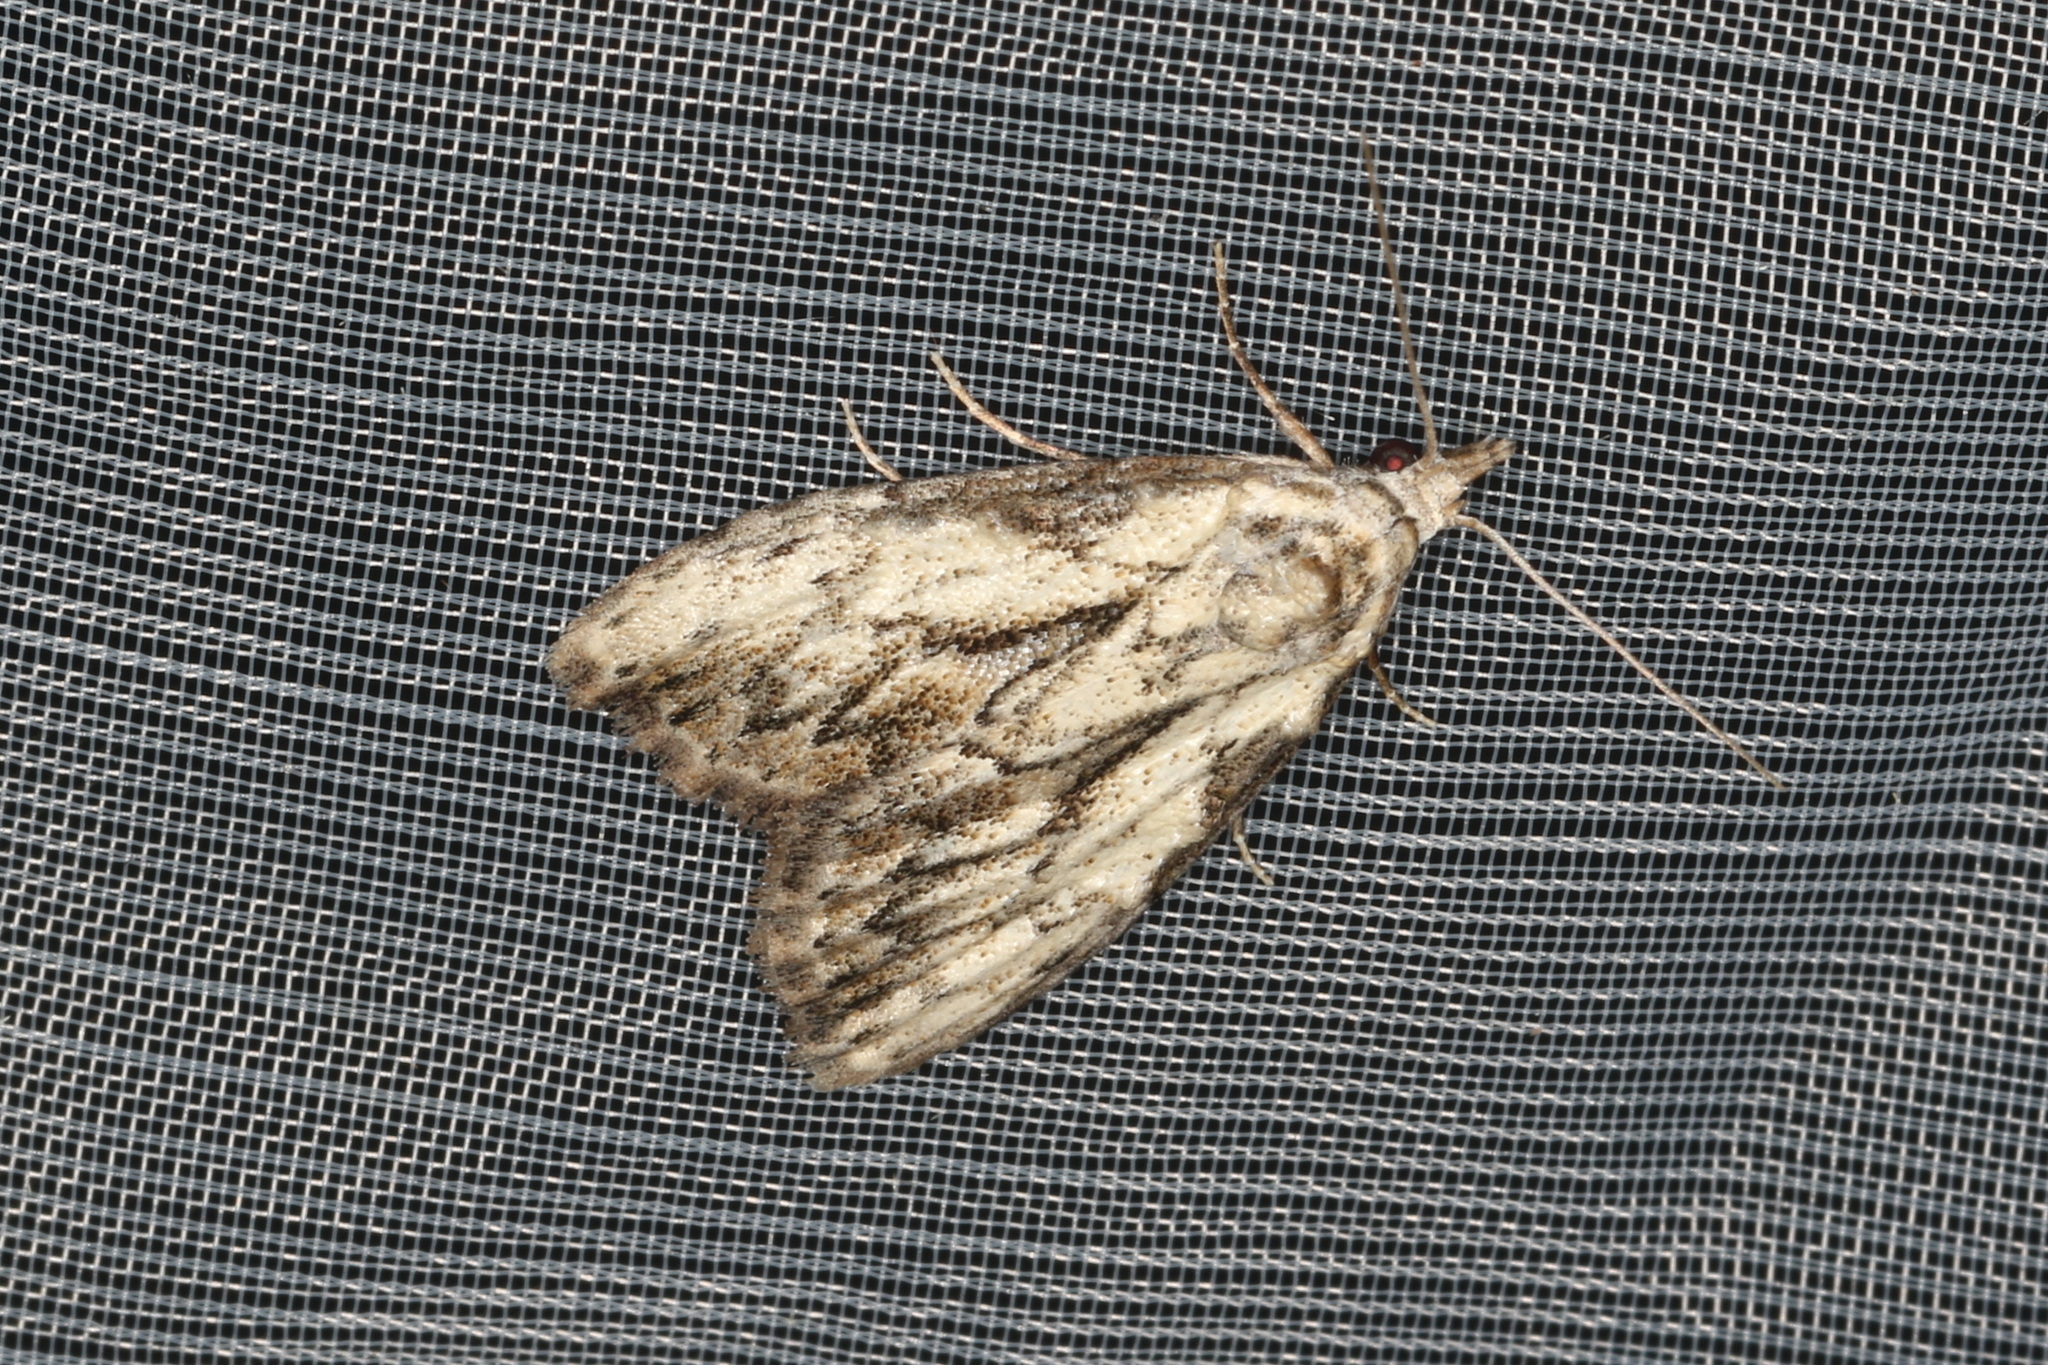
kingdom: Animalia
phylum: Arthropoda
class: Insecta
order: Lepidoptera
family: Nolidae
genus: Nola
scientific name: Nola pleurochorda
